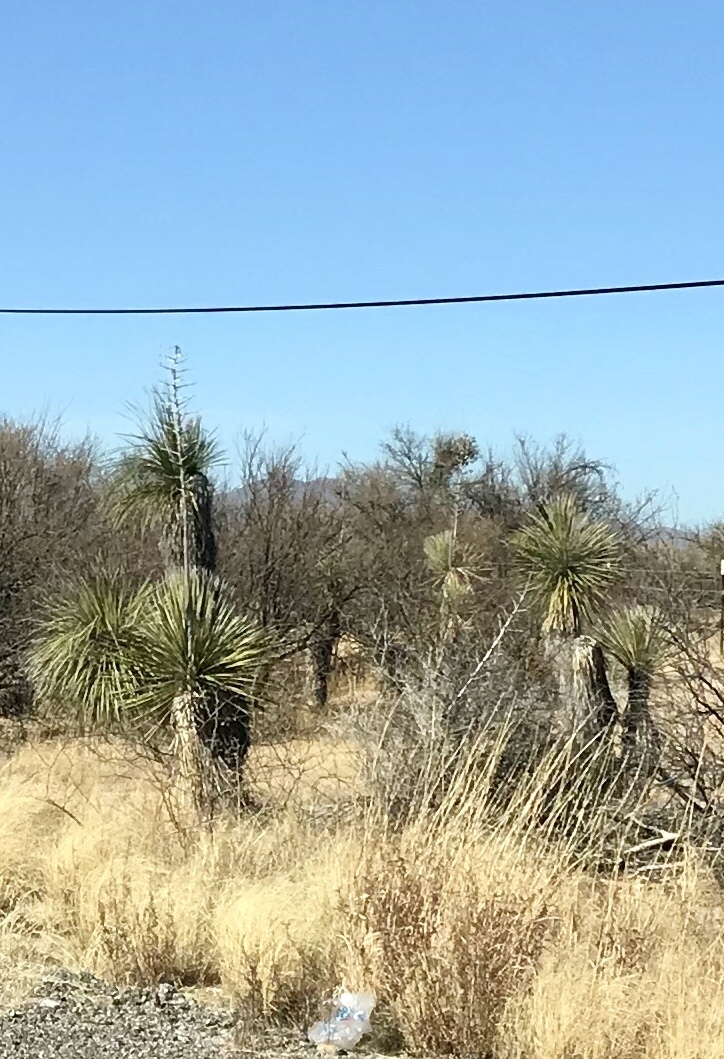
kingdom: Plantae
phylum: Tracheophyta
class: Liliopsida
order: Asparagales
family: Asparagaceae
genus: Yucca
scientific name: Yucca elata
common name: Palmella
